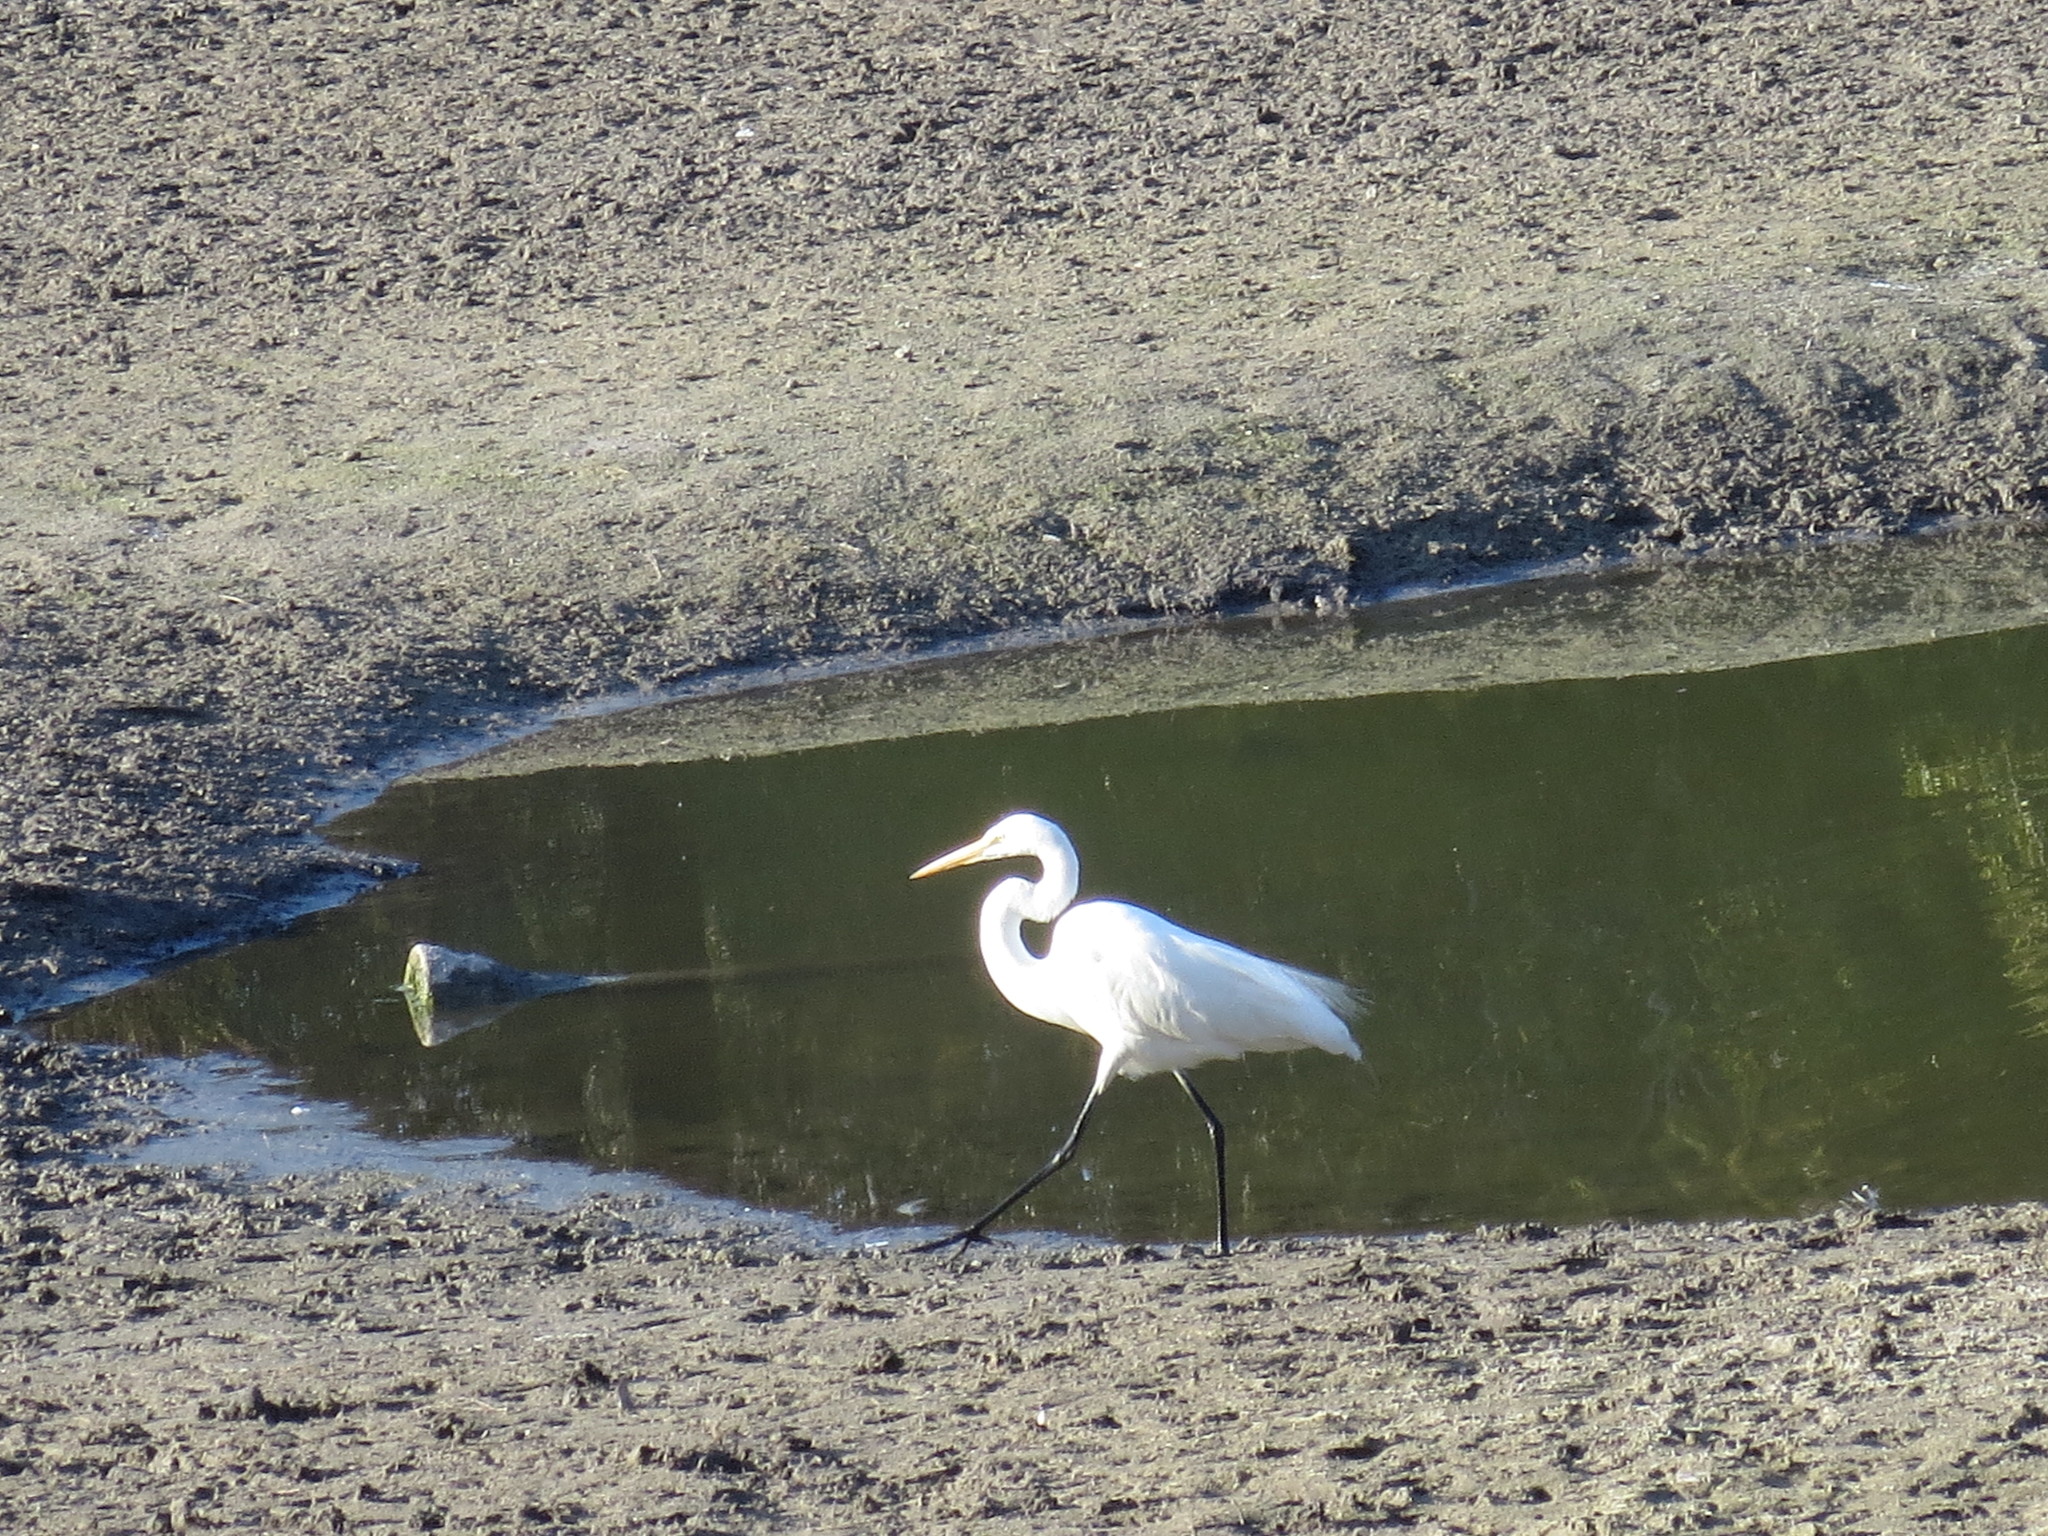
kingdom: Animalia
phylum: Chordata
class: Aves
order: Pelecaniformes
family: Ardeidae
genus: Ardea
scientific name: Ardea alba
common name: Great egret
